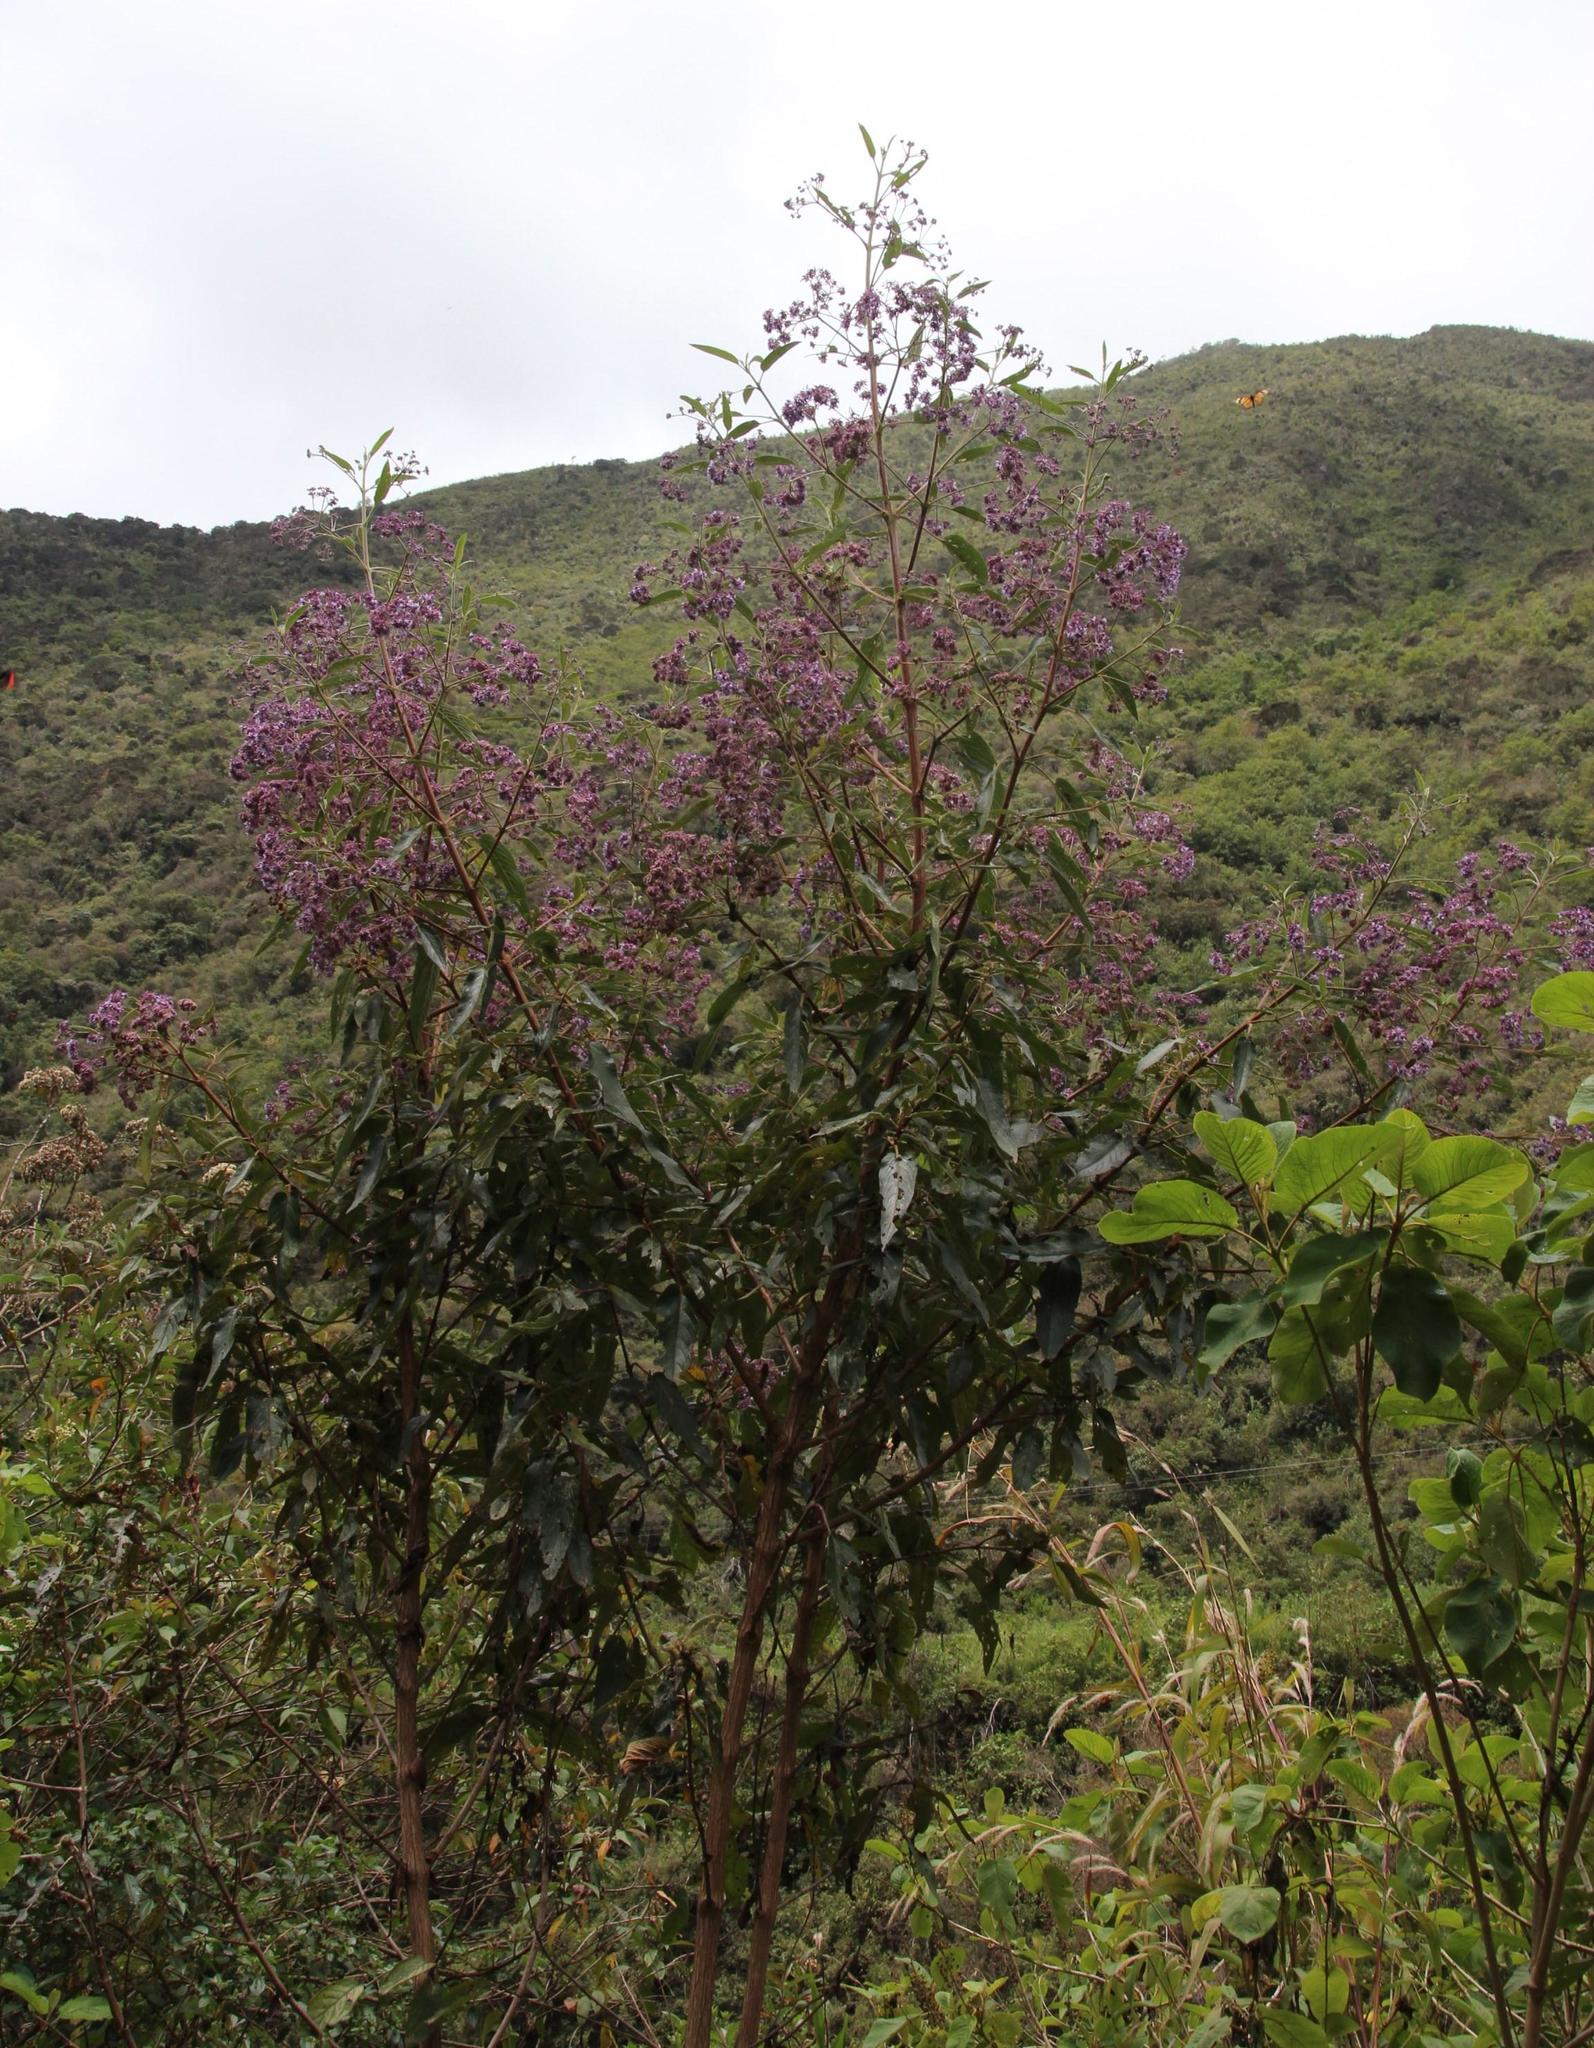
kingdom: Plantae
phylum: Tracheophyta
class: Magnoliopsida
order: Lamiales
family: Lamiaceae
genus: Condea
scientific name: Condea tafallae
